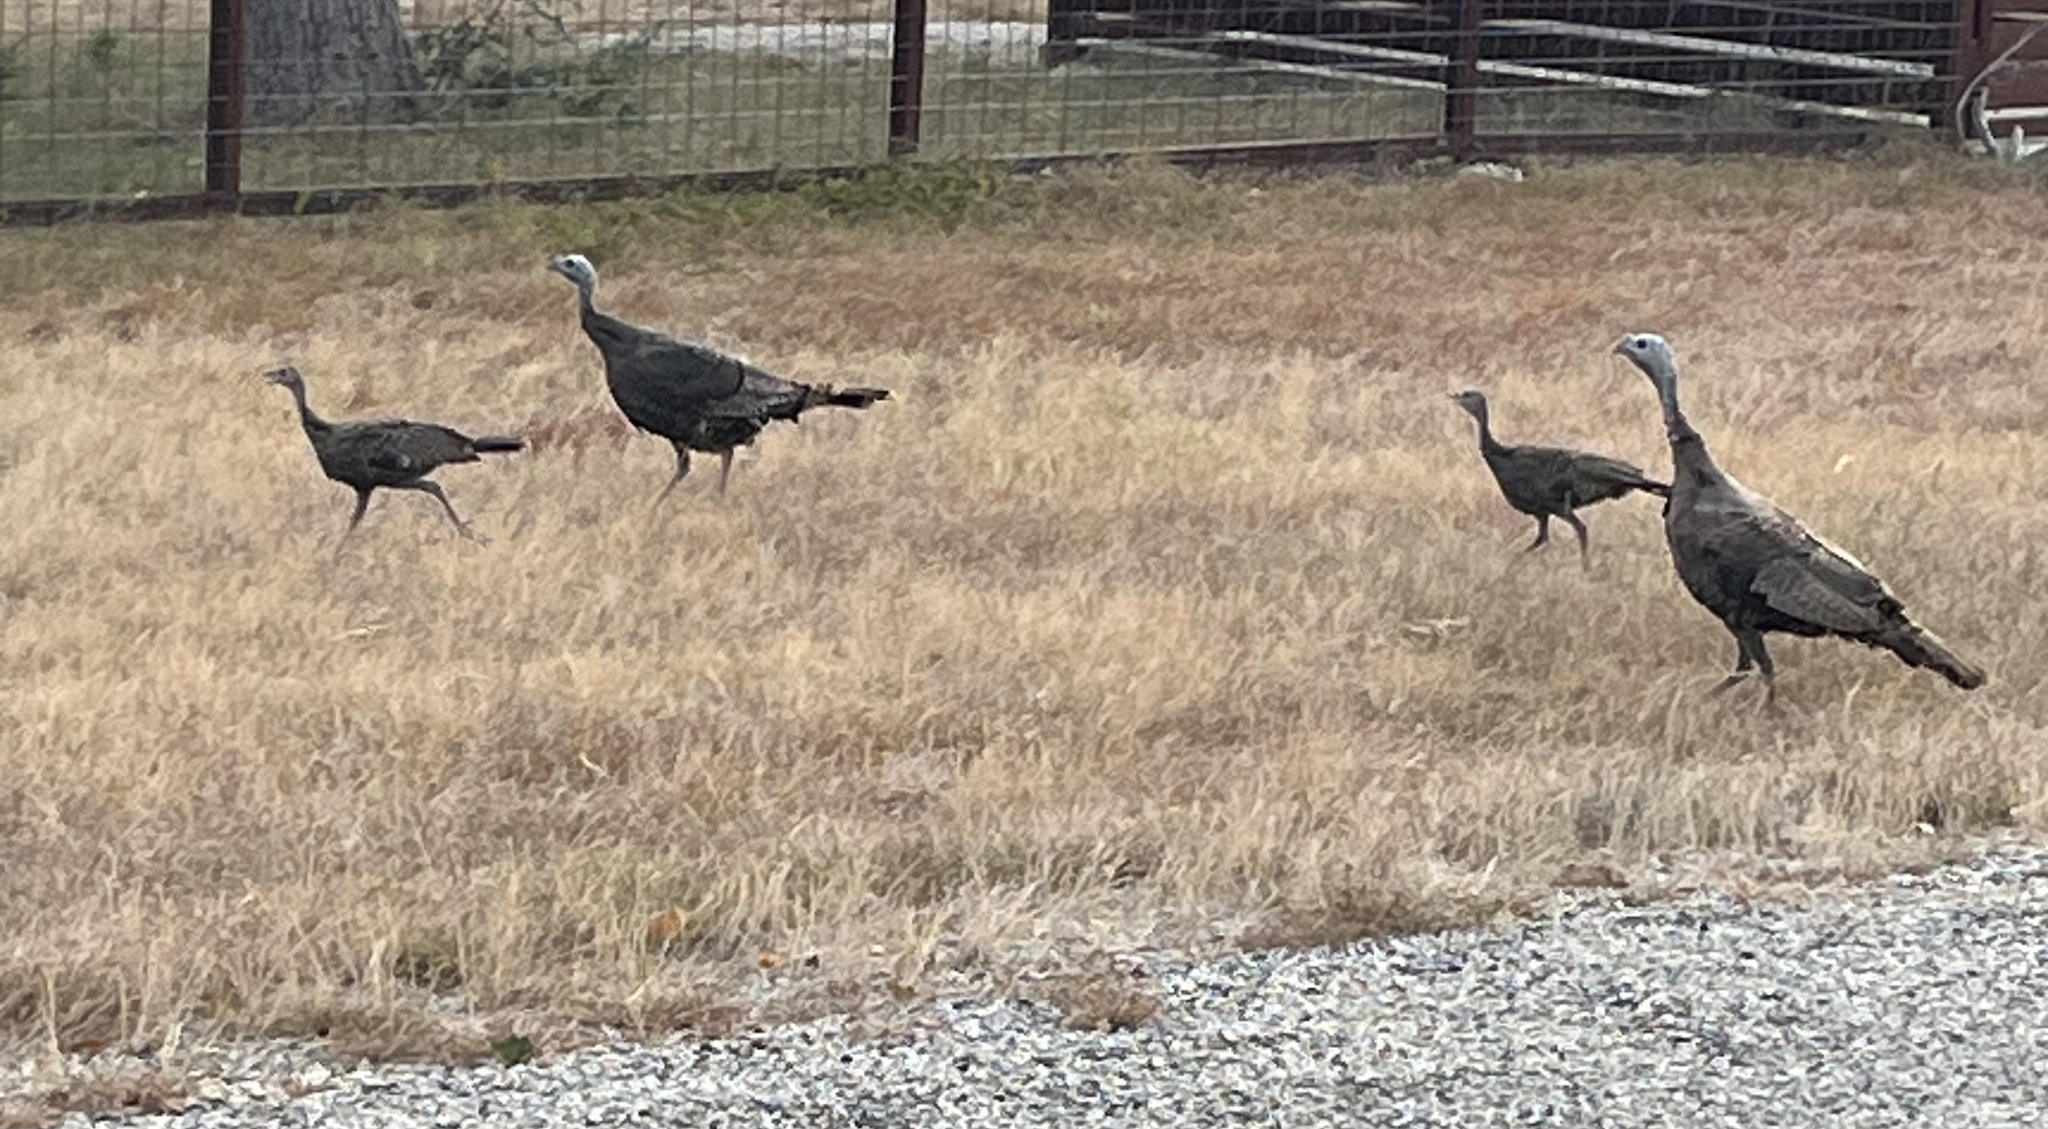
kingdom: Animalia
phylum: Chordata
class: Aves
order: Galliformes
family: Phasianidae
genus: Meleagris
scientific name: Meleagris gallopavo
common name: Wild turkey
